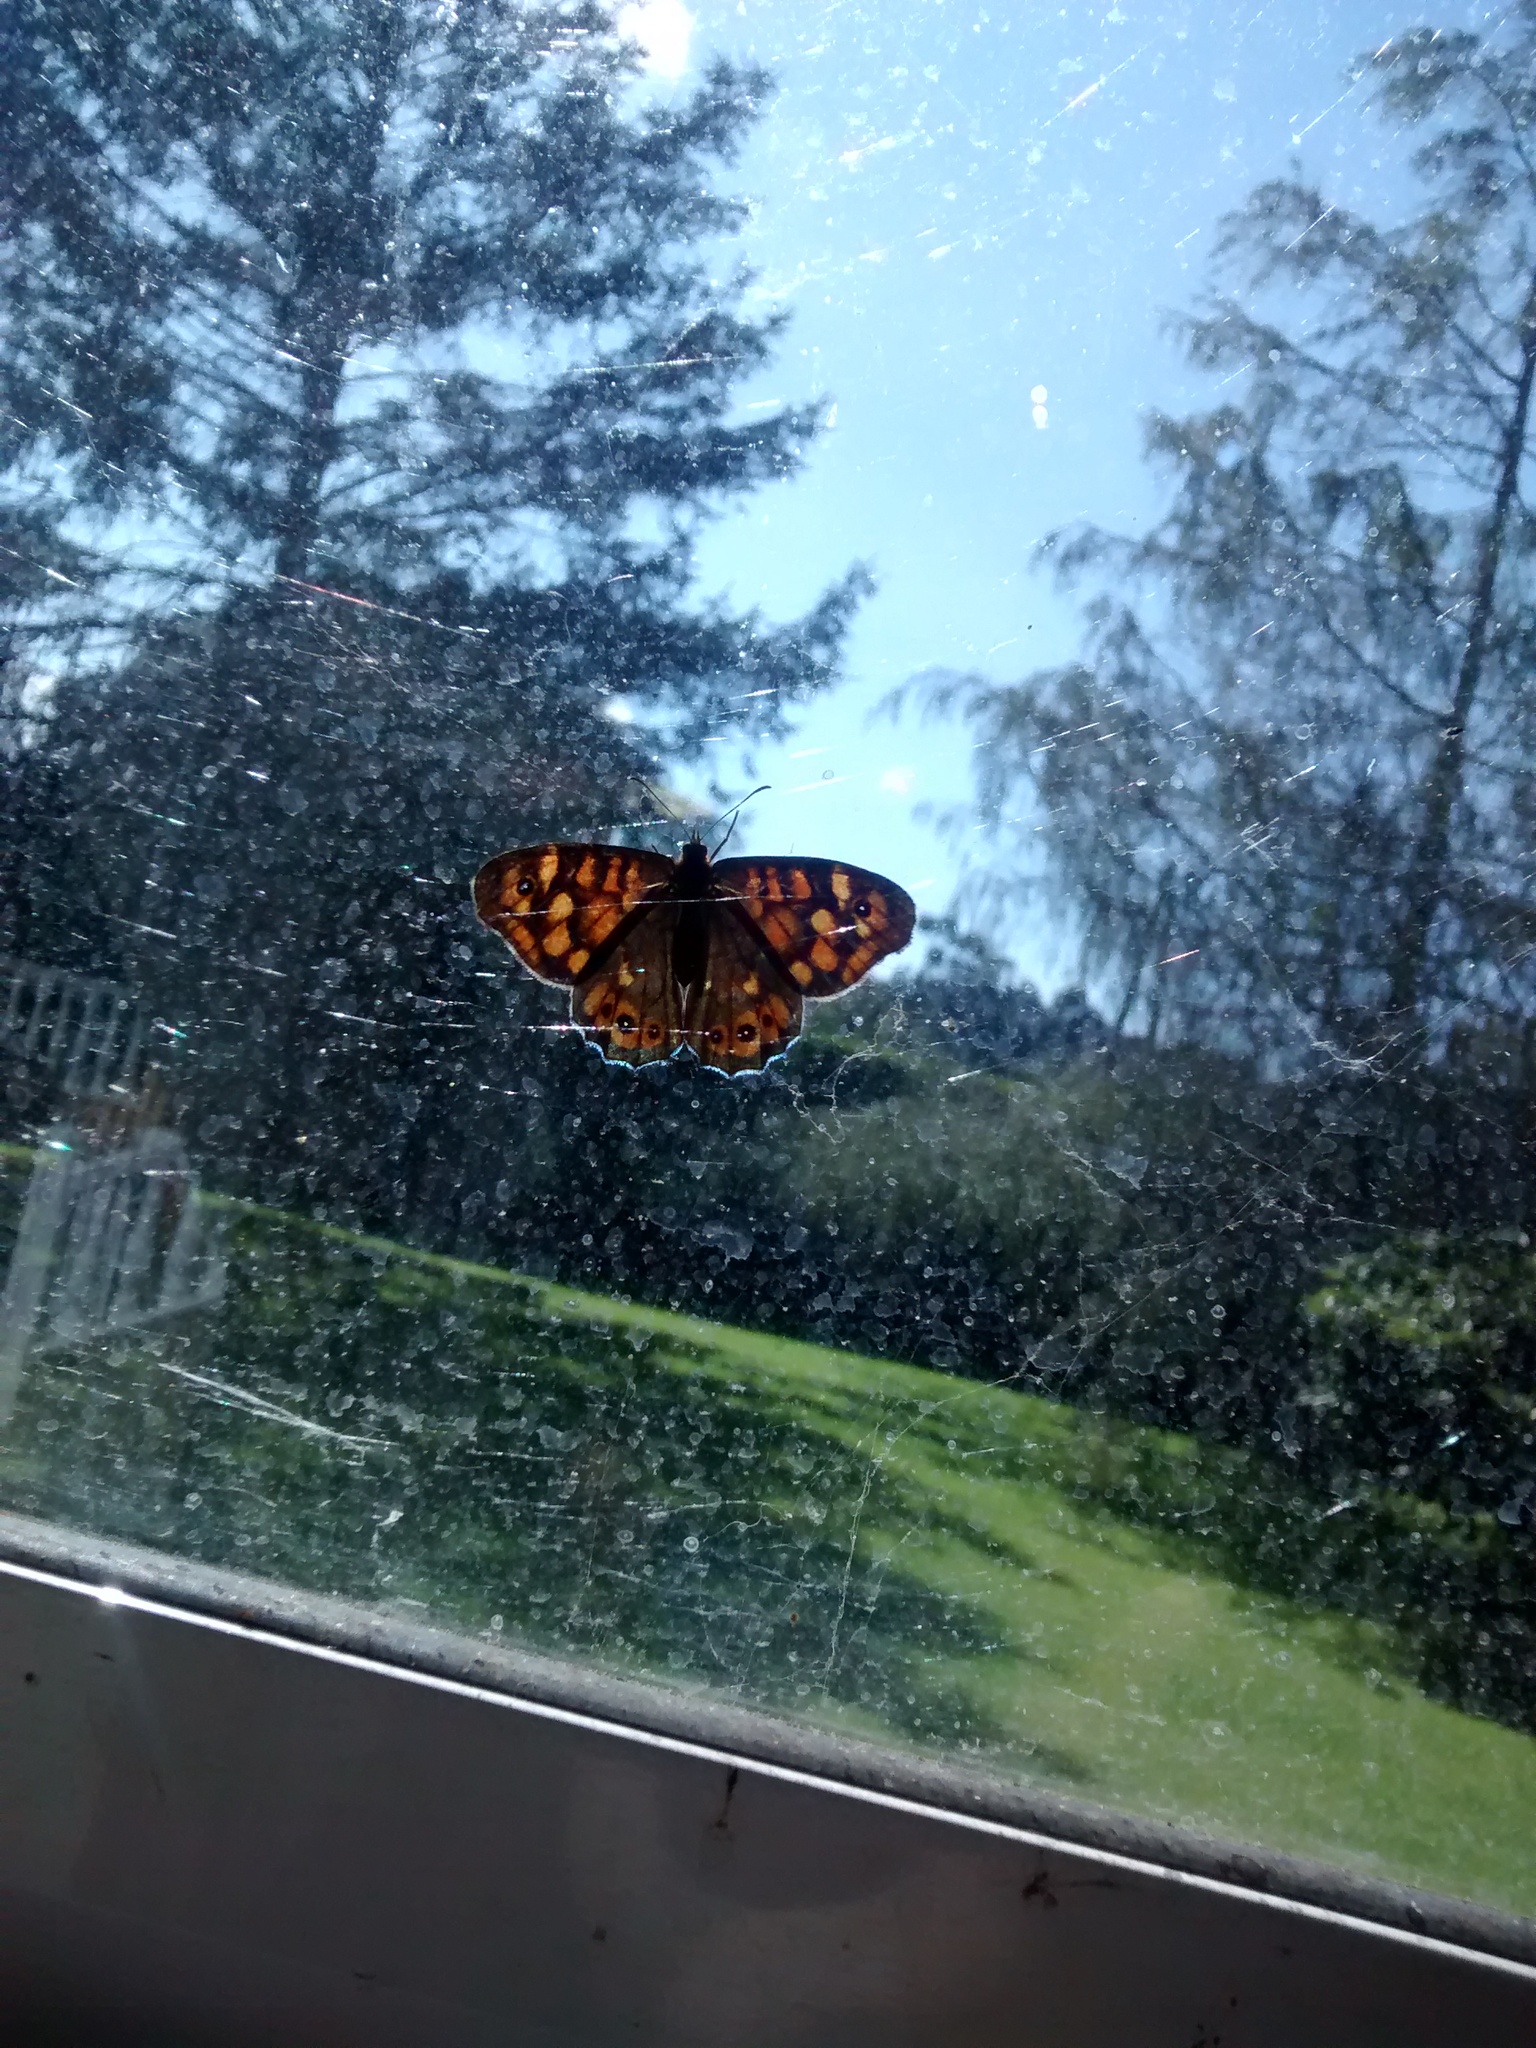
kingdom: Animalia
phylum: Arthropoda
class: Insecta
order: Lepidoptera
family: Nymphalidae
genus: Pararge
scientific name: Pararge aegeria
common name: Speckled wood
